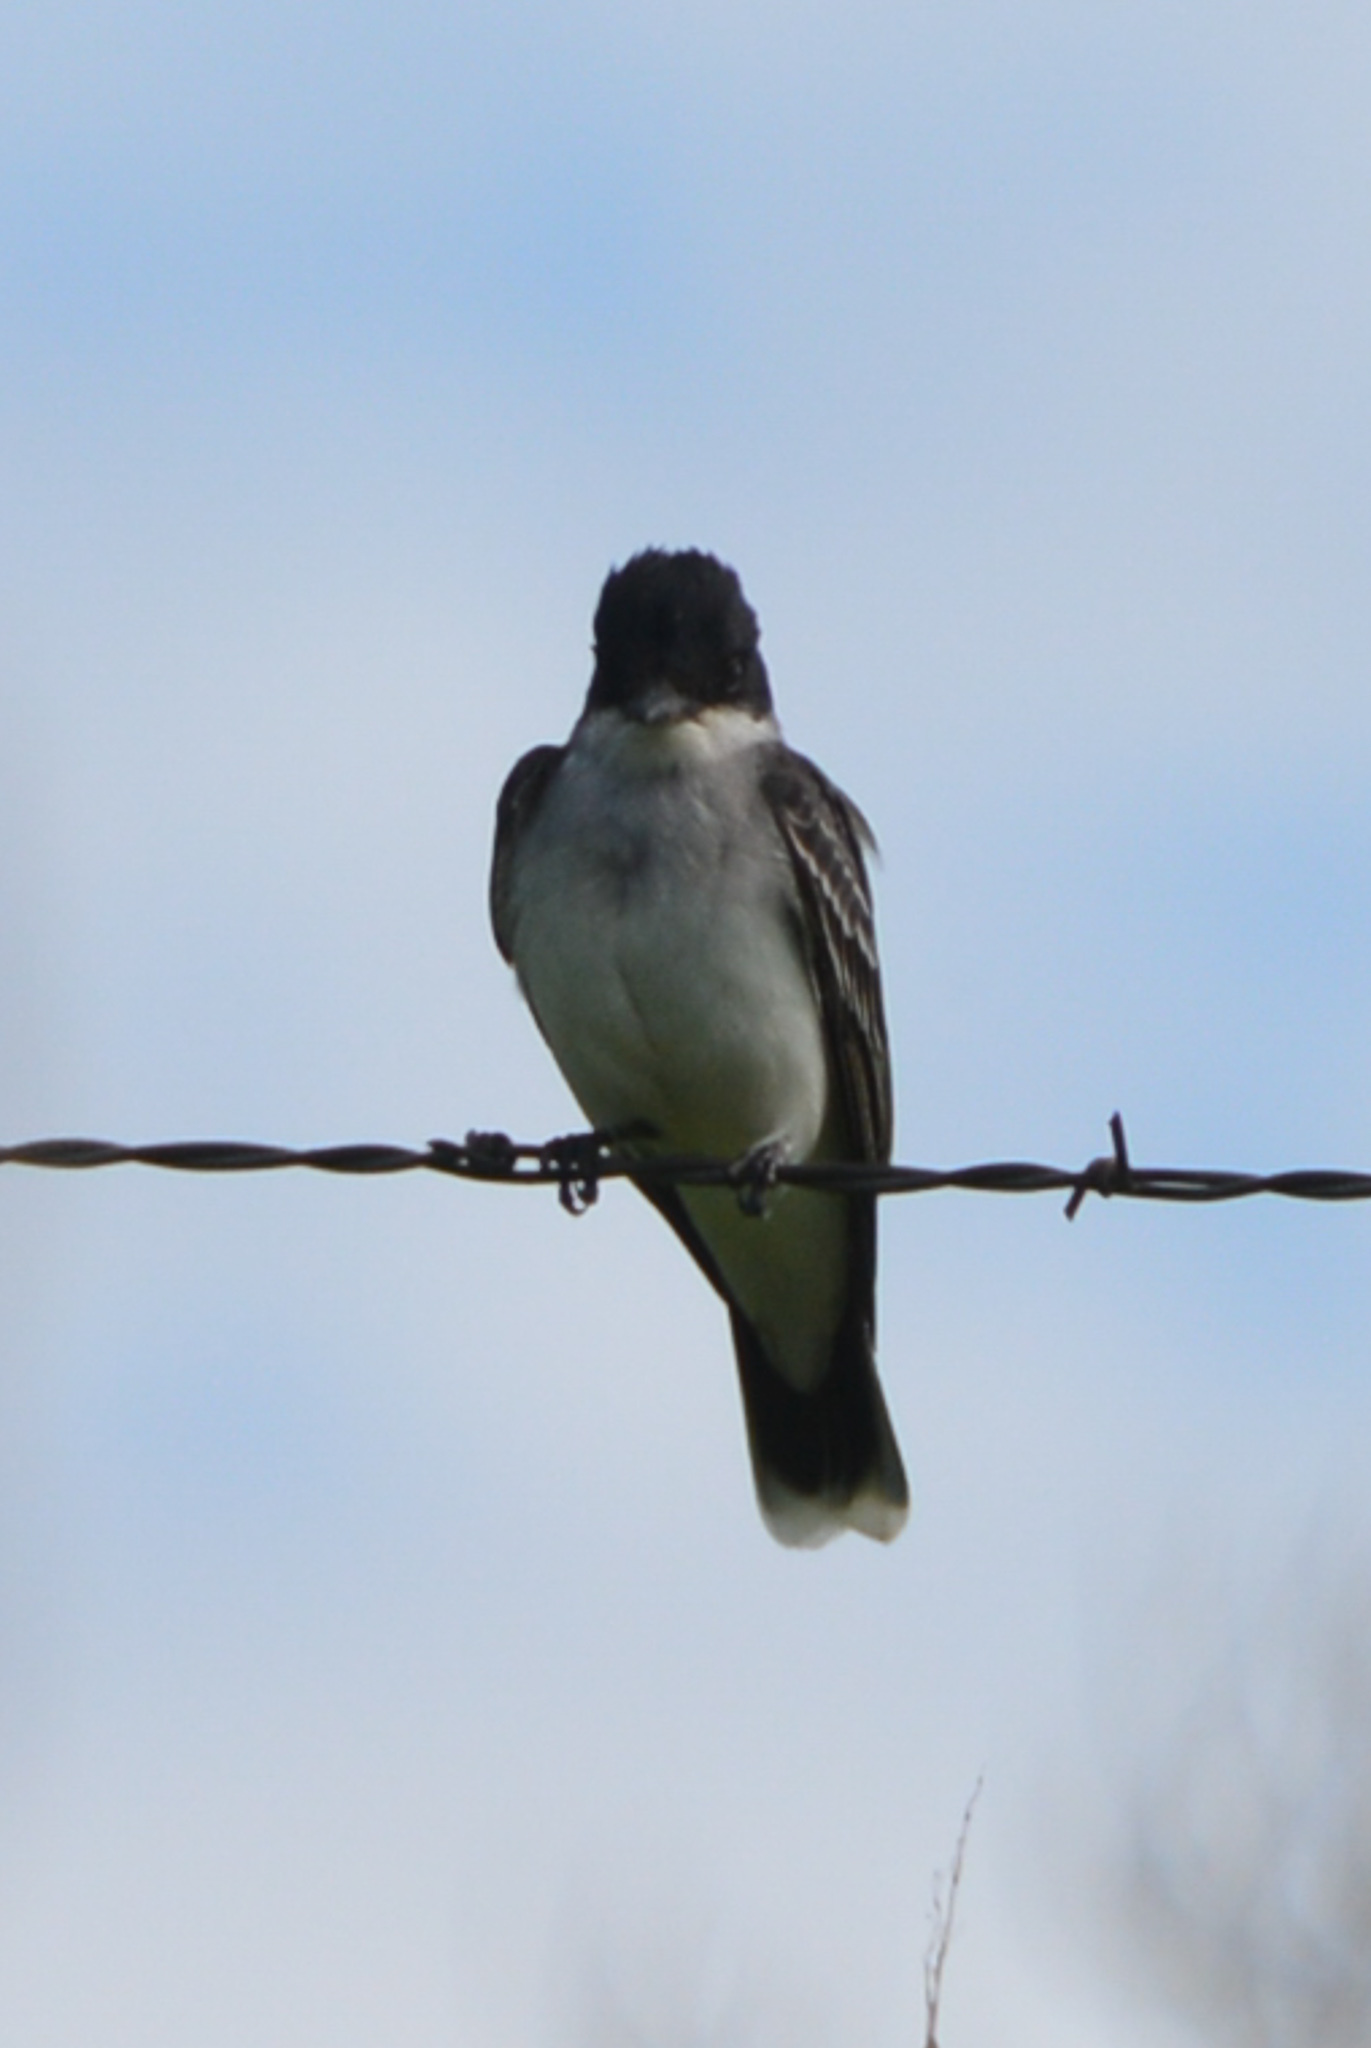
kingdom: Animalia
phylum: Chordata
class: Aves
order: Passeriformes
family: Tyrannidae
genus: Tyrannus
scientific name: Tyrannus tyrannus
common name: Eastern kingbird
